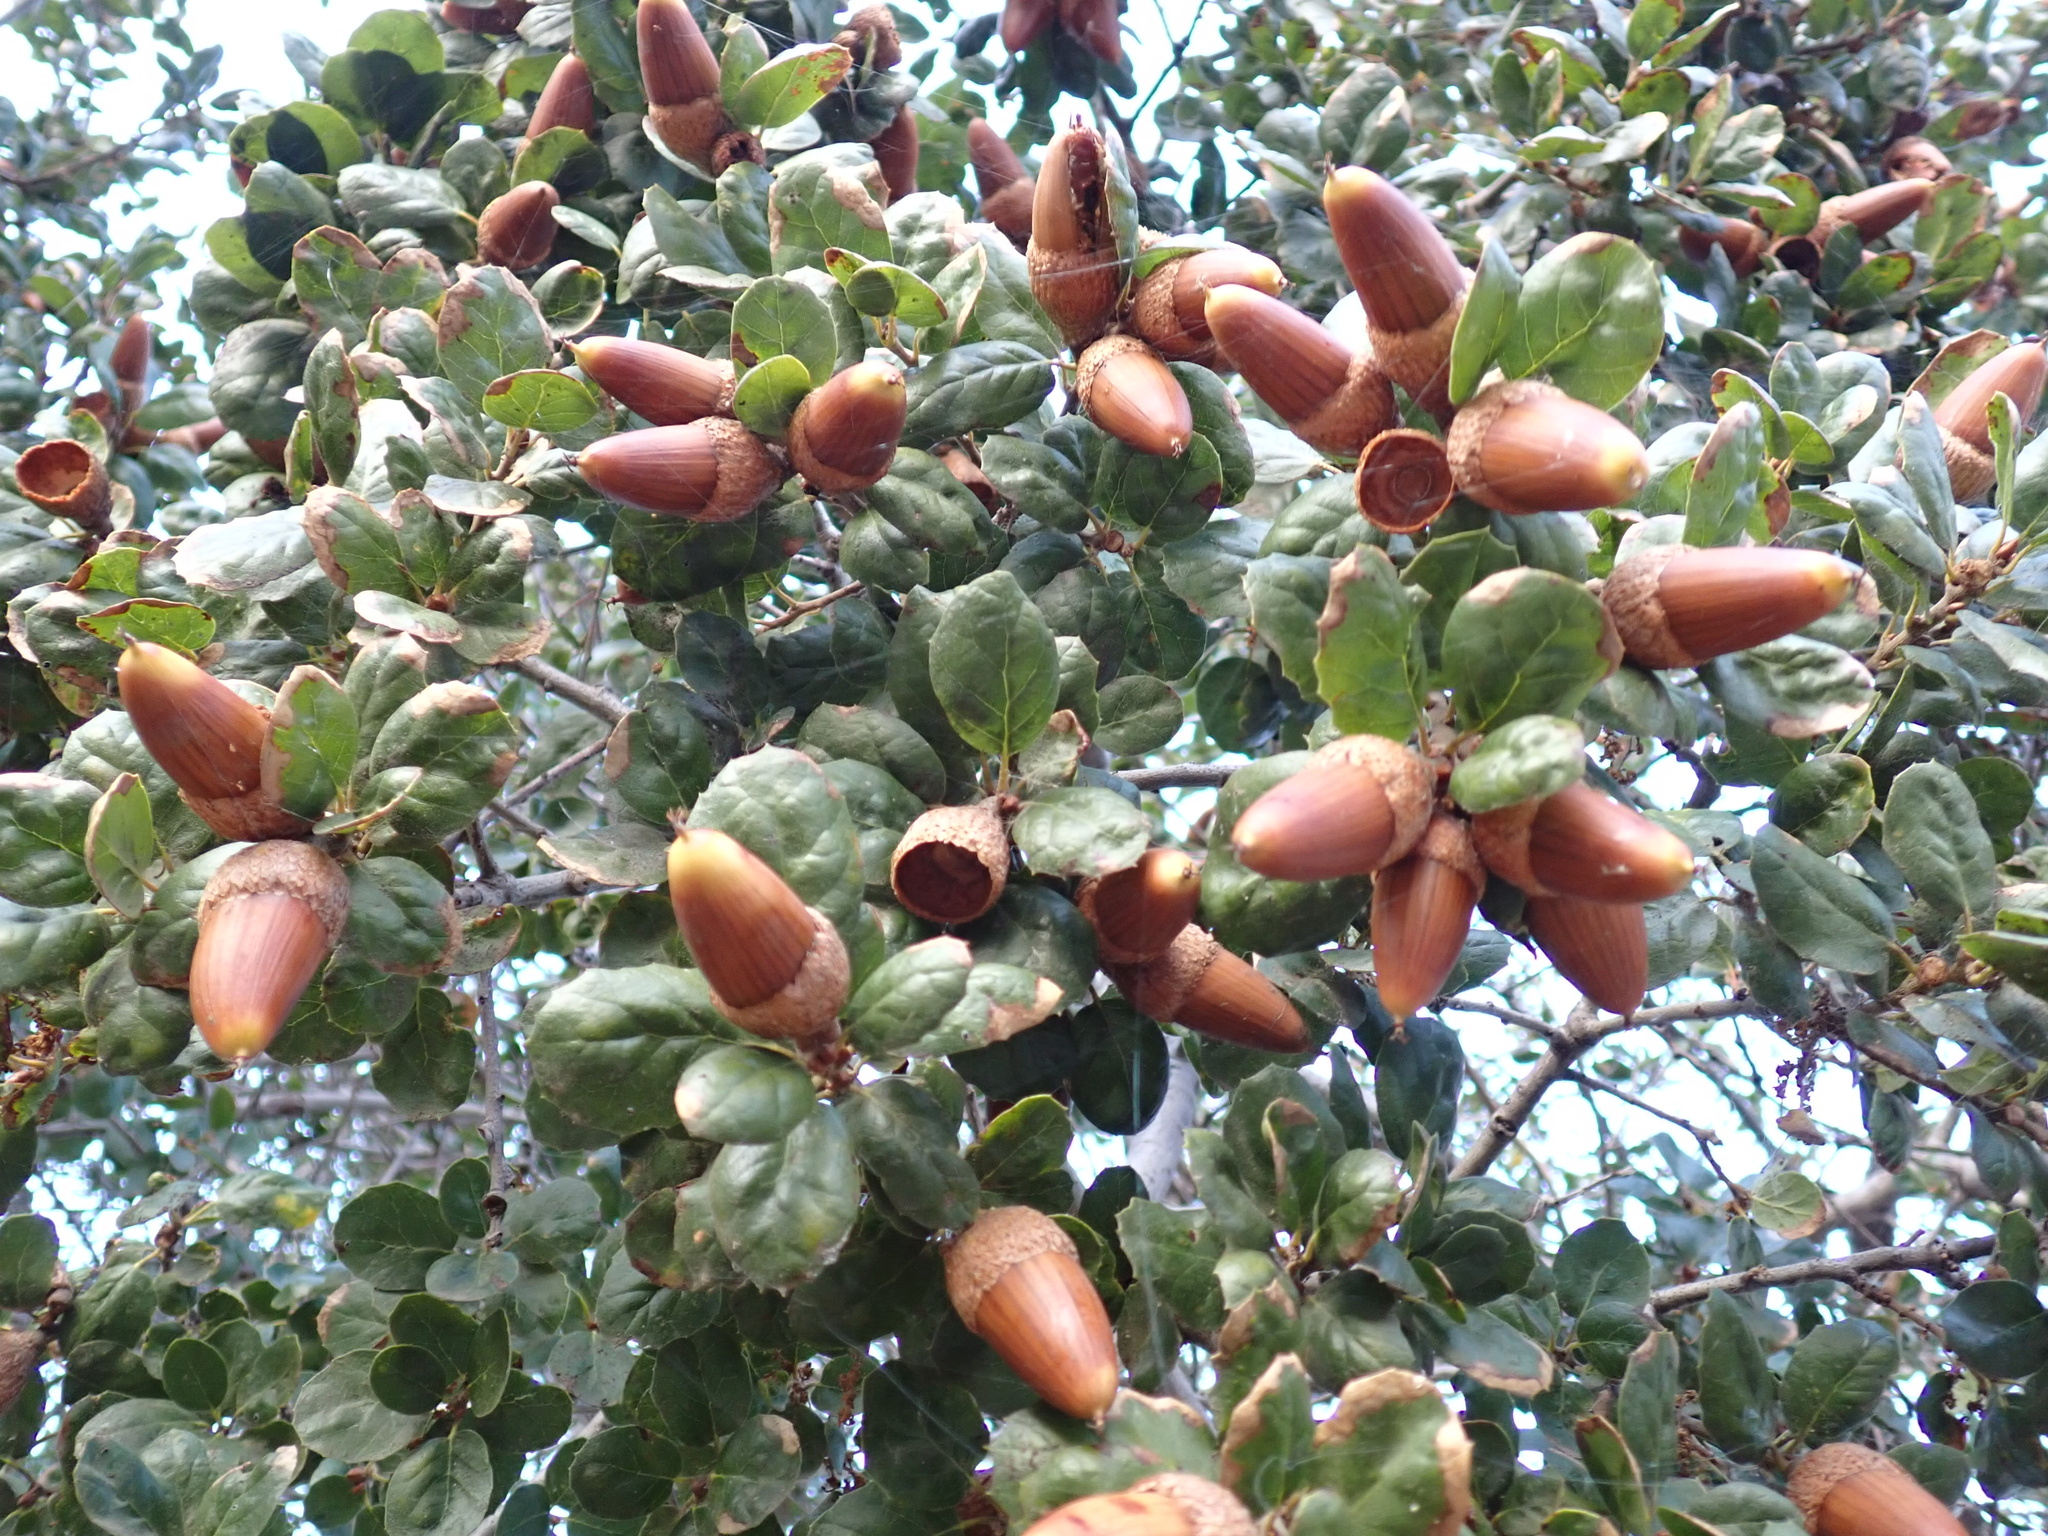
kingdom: Plantae
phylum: Tracheophyta
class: Magnoliopsida
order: Fagales
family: Fagaceae
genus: Quercus
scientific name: Quercus agrifolia
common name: California live oak
